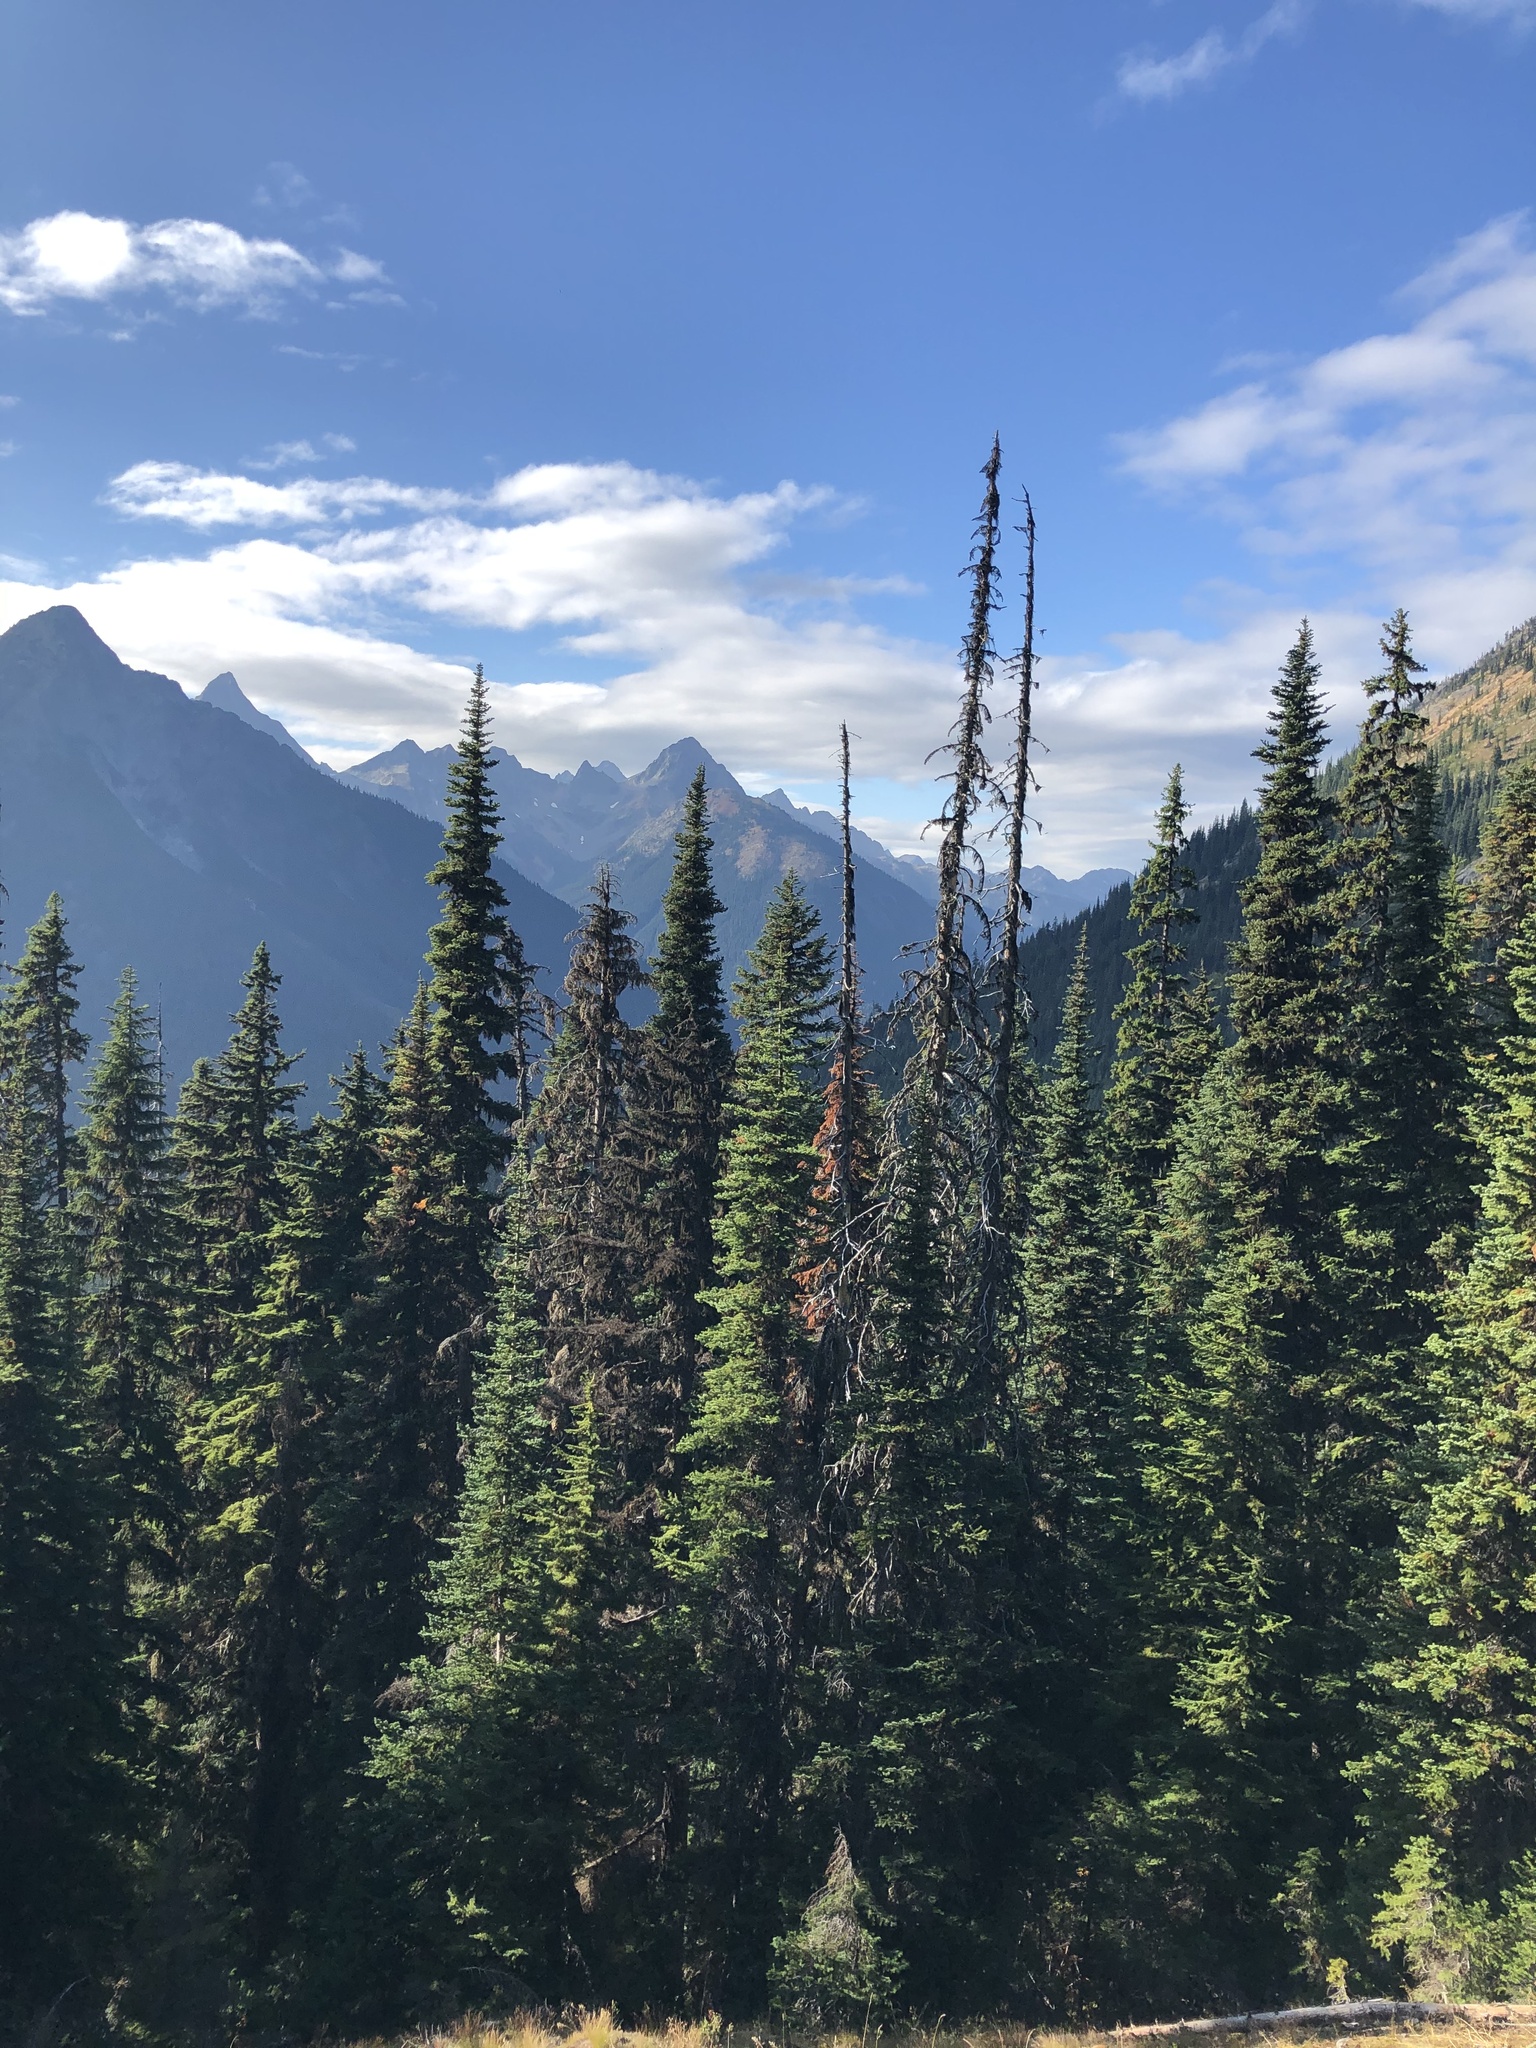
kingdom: Plantae
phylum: Tracheophyta
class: Pinopsida
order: Pinales
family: Pinaceae
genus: Abies
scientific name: Abies lasiocarpa
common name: Subalpine fir
